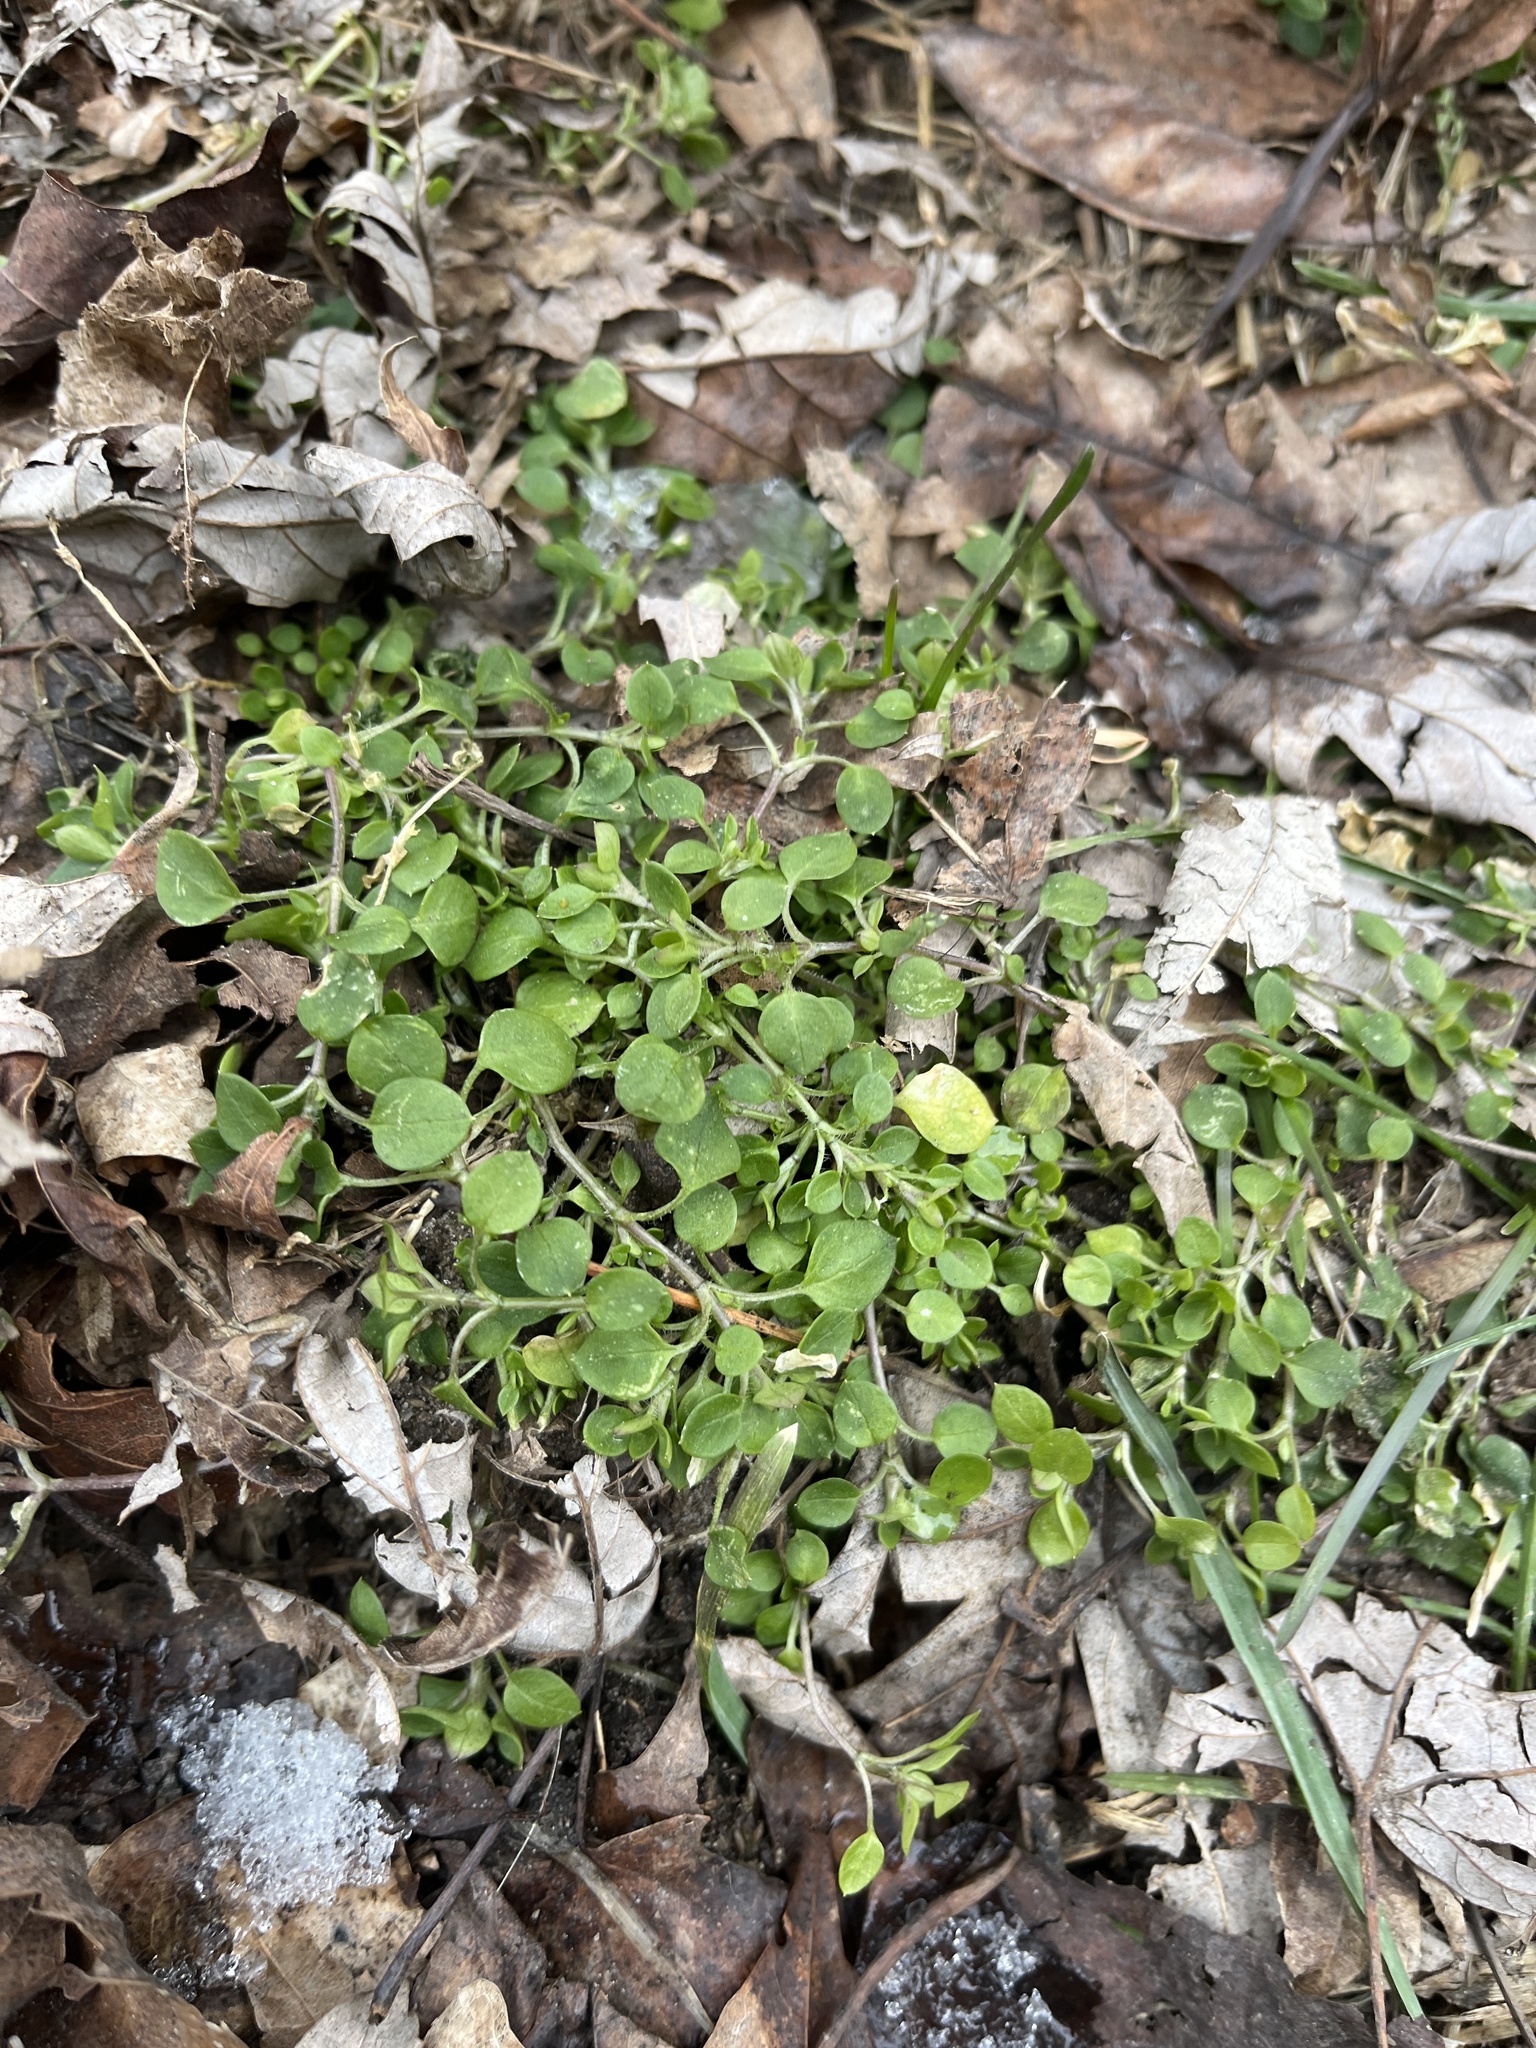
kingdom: Plantae
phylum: Tracheophyta
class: Magnoliopsida
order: Caryophyllales
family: Caryophyllaceae
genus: Stellaria
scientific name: Stellaria media
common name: Common chickweed
